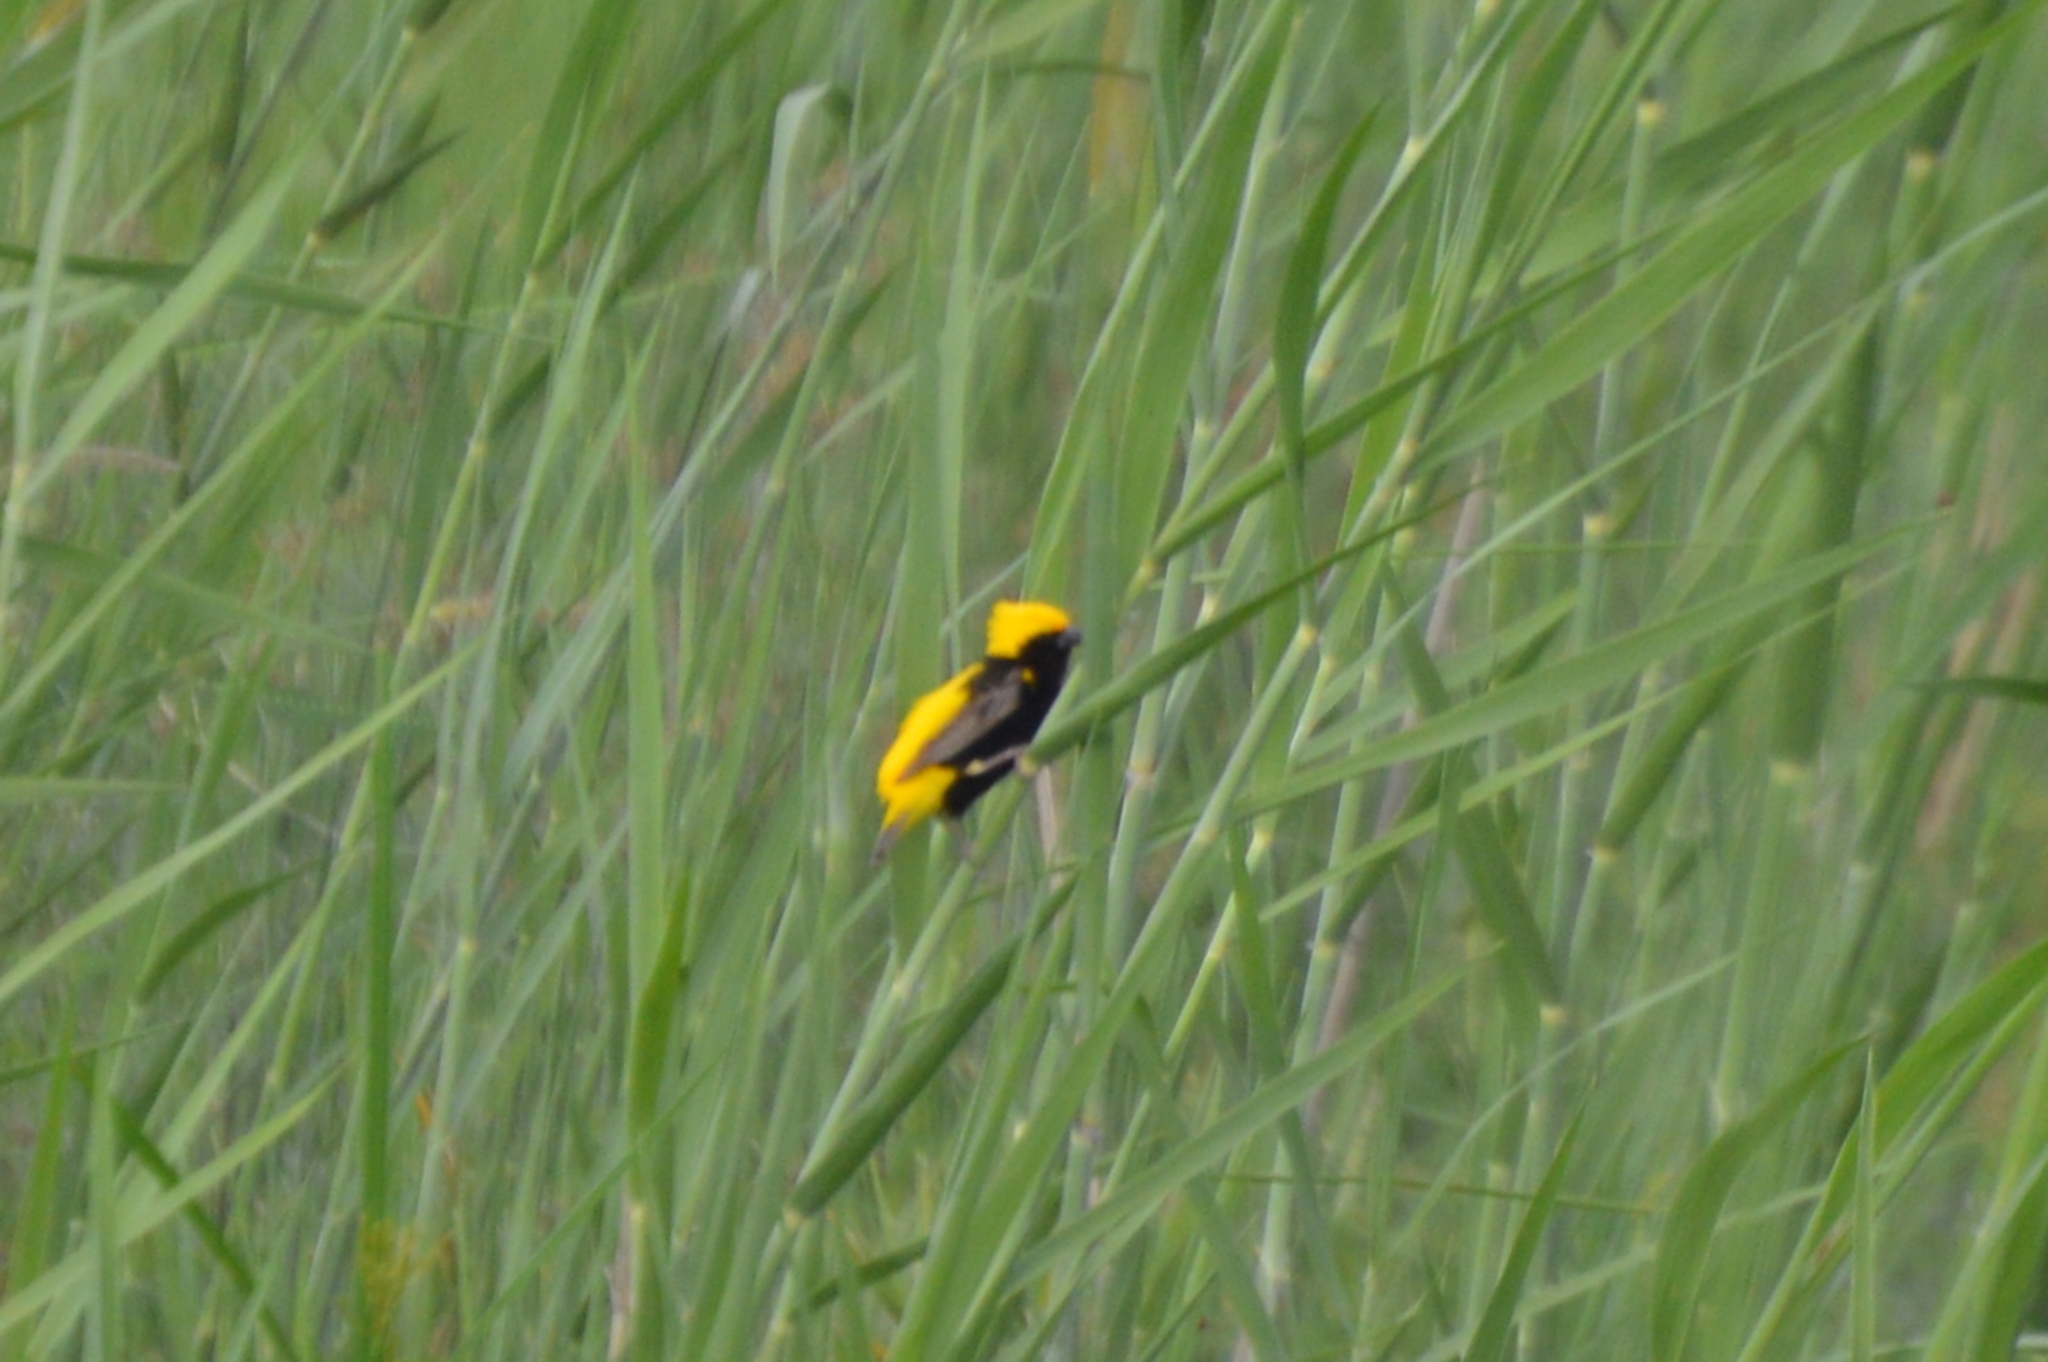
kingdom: Animalia
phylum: Chordata
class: Aves
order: Passeriformes
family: Ploceidae
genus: Euplectes
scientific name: Euplectes afer
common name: Yellow-crowned bishop
